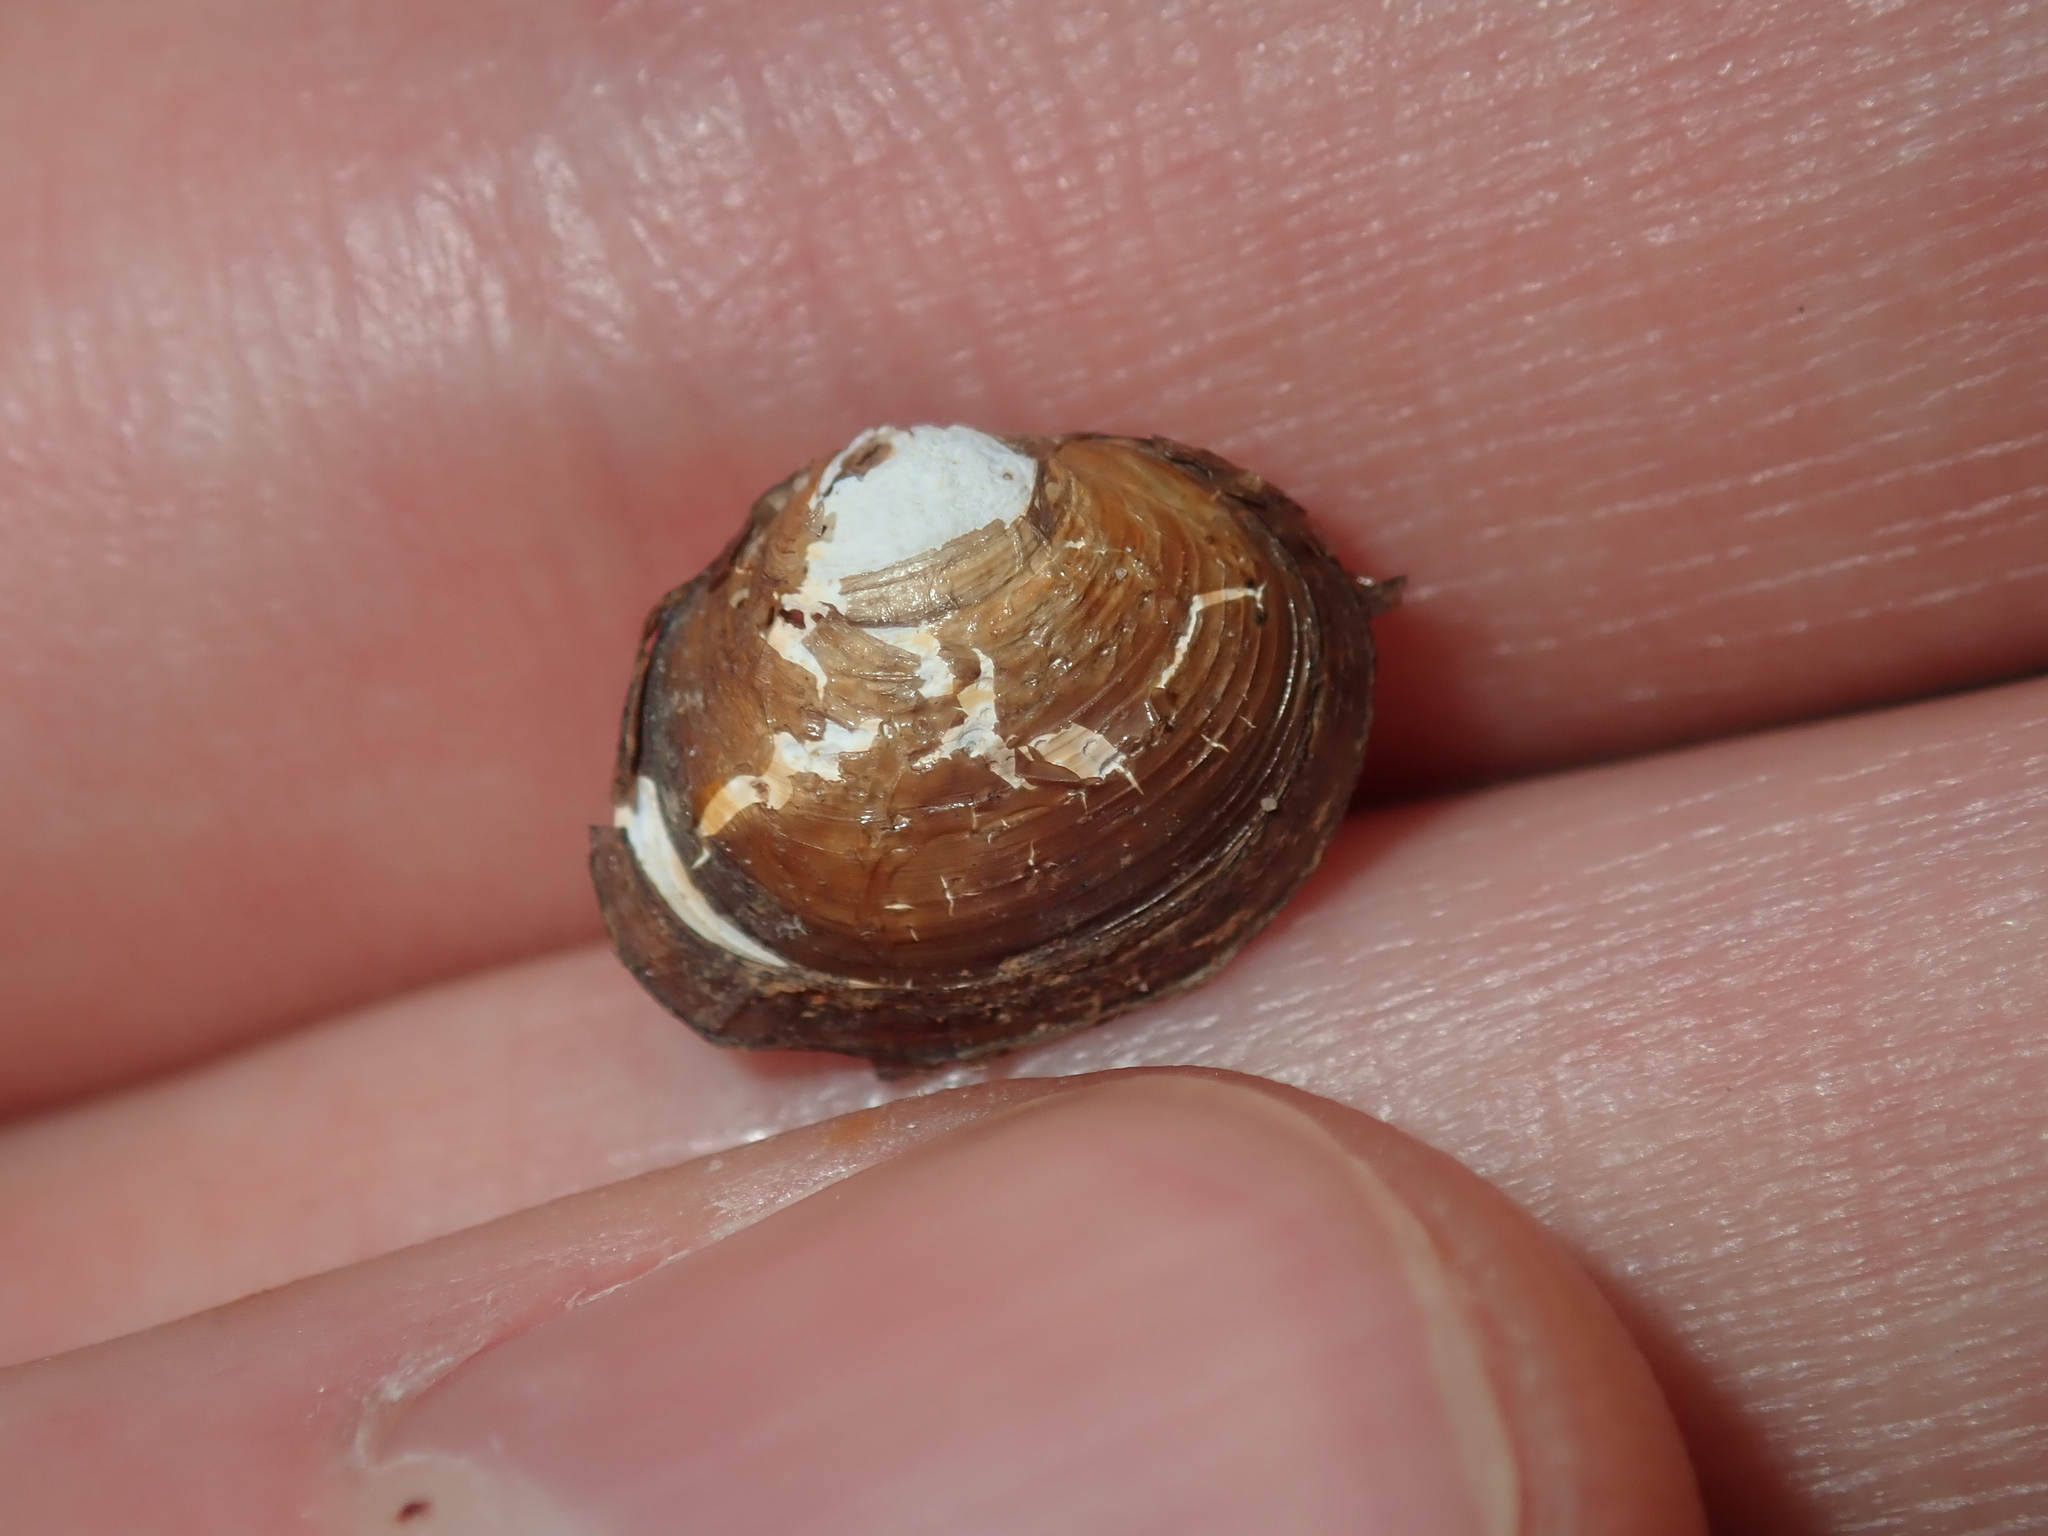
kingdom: Animalia
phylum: Mollusca
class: Bivalvia
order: Venerida
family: Cyrenidae
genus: Corbicula
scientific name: Corbicula australis
